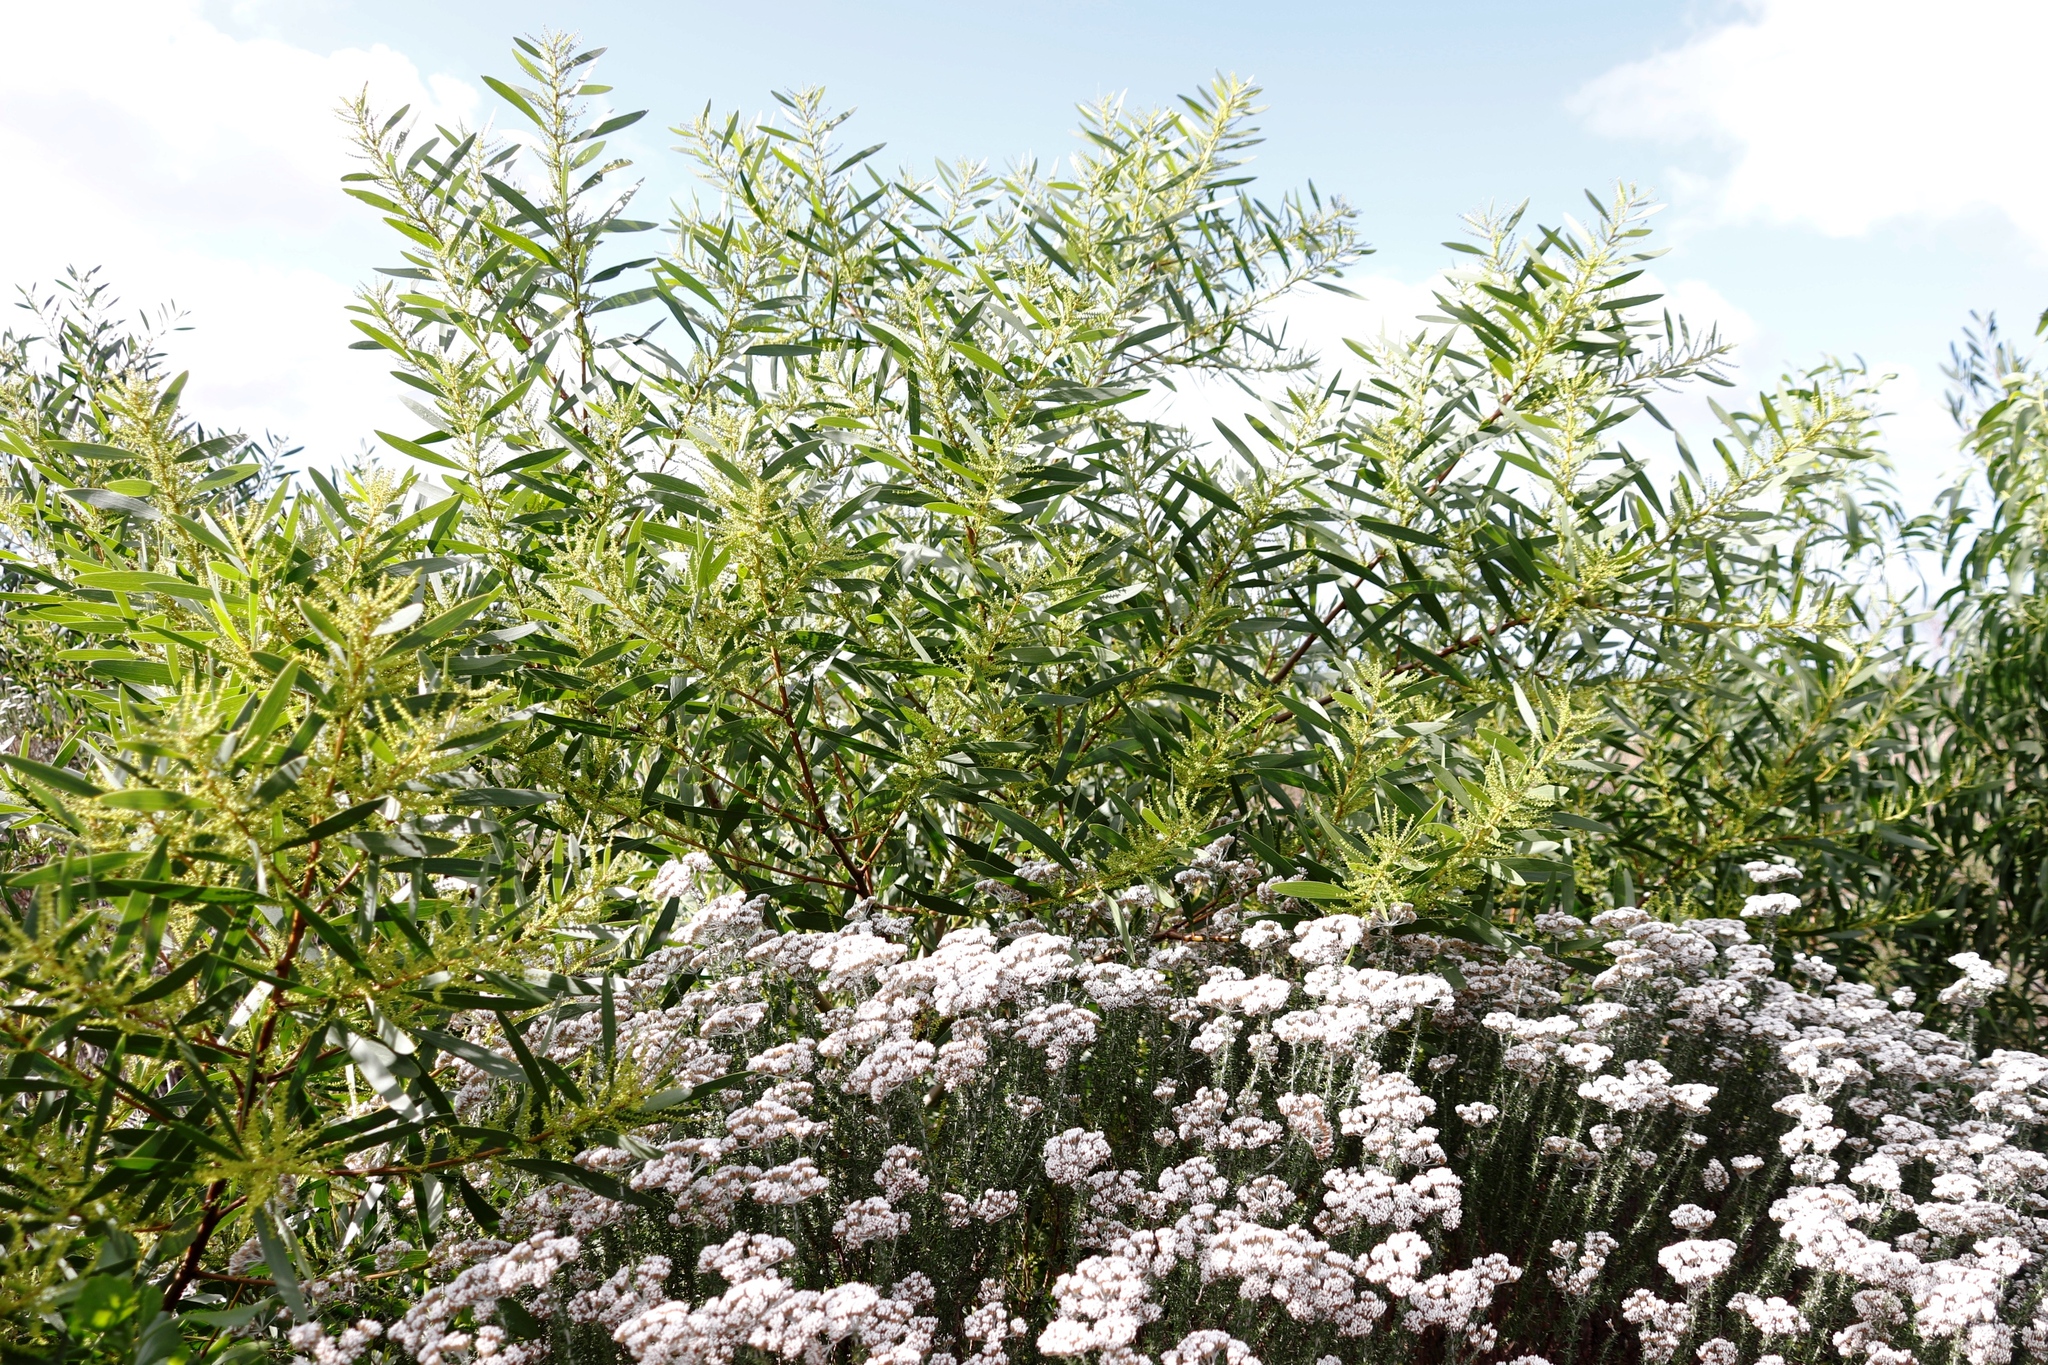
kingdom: Plantae
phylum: Tracheophyta
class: Magnoliopsida
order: Fabales
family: Fabaceae
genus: Acacia
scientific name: Acacia longifolia
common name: Sydney golden wattle
